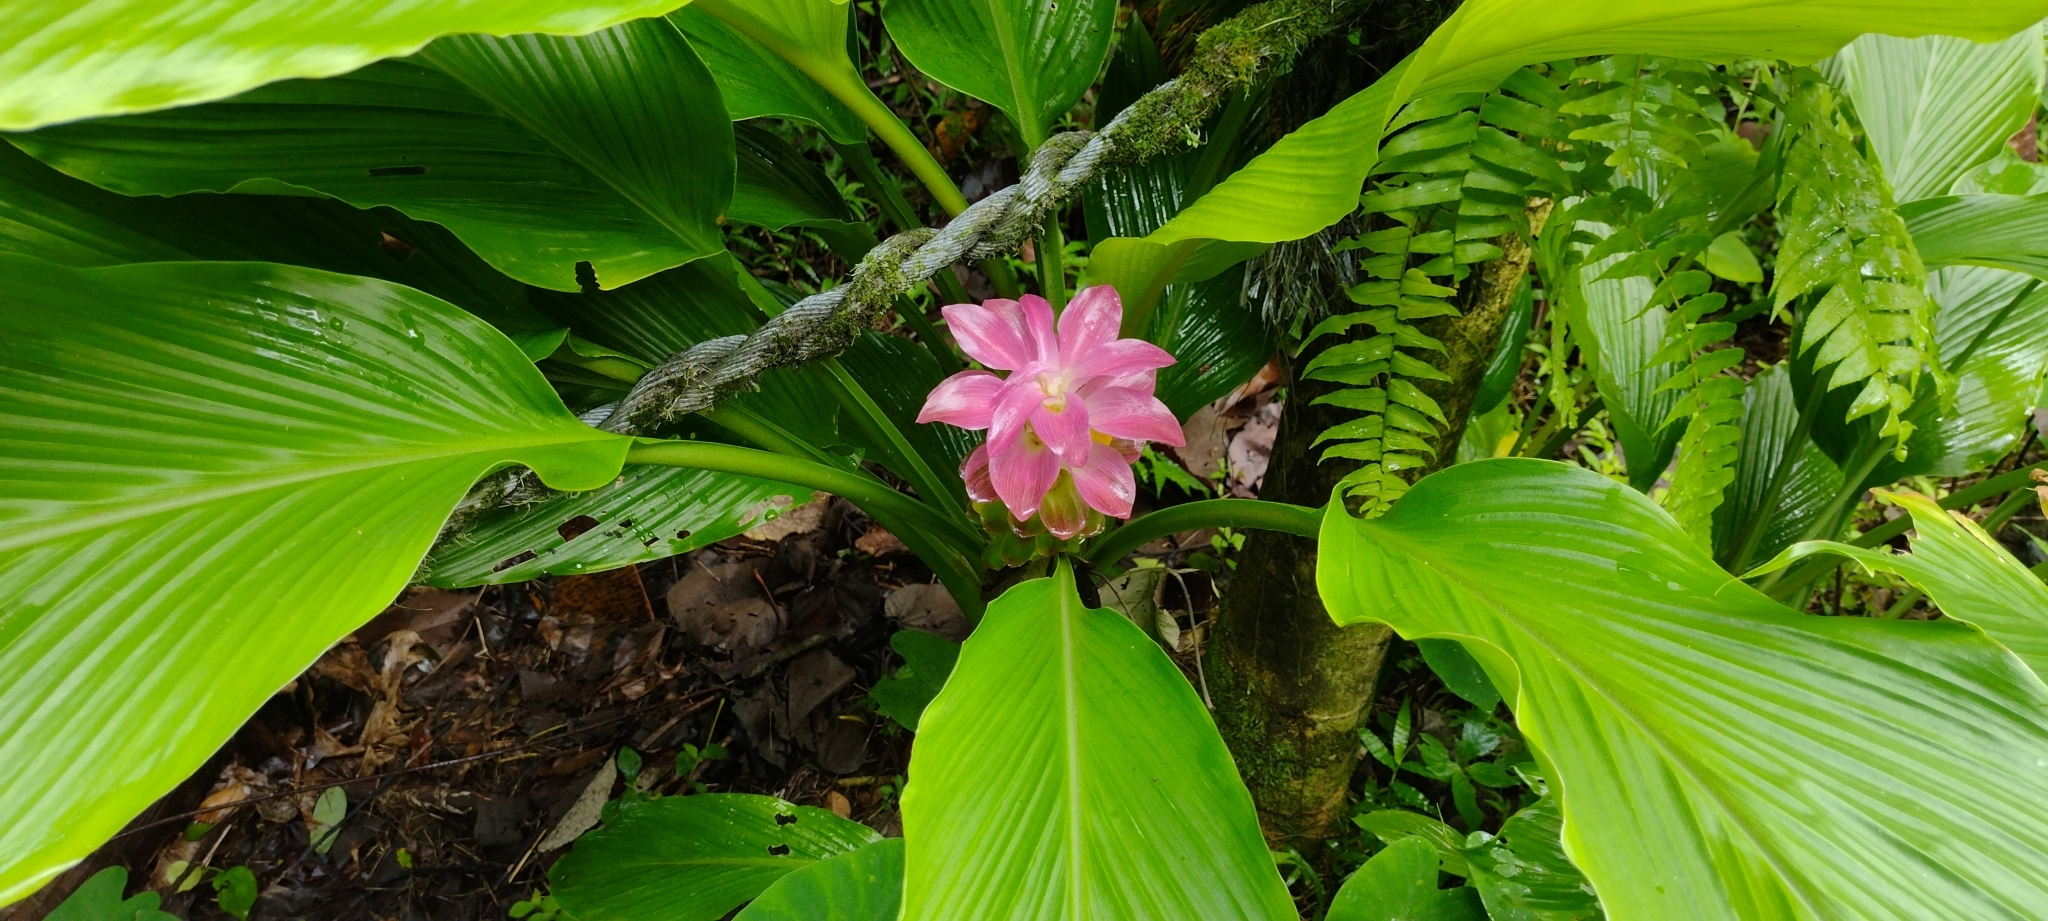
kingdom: Plantae
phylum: Tracheophyta
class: Liliopsida
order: Zingiberales
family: Zingiberaceae
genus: Curcuma
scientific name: Curcuma longa
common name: Turmeric
